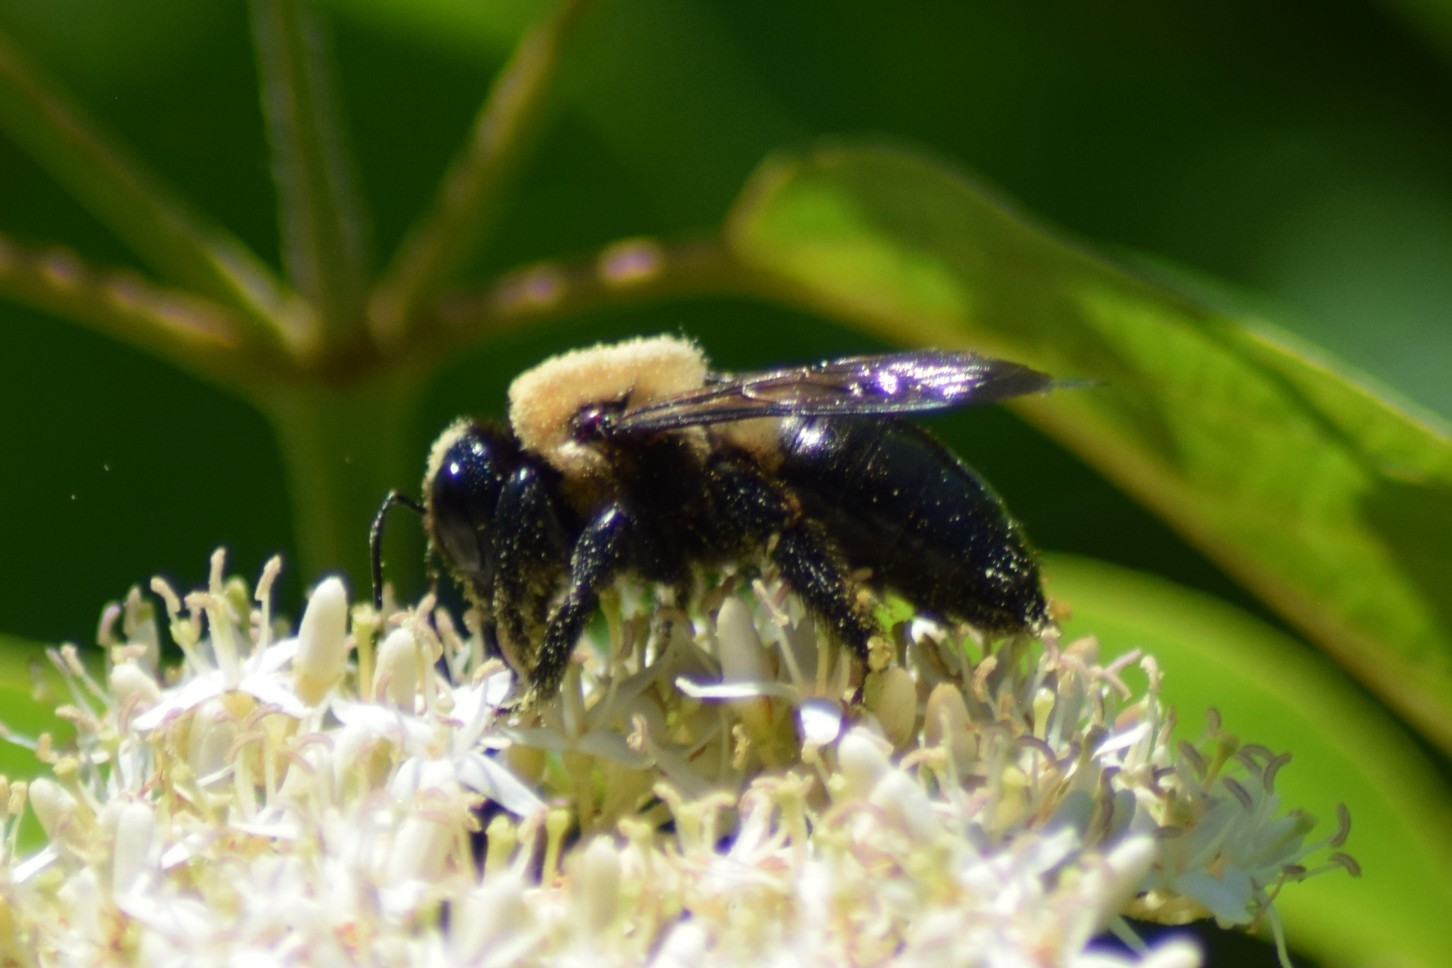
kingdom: Animalia
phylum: Arthropoda
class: Insecta
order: Hymenoptera
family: Apidae
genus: Xylocopa
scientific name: Xylocopa virginica
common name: Carpenter bee
